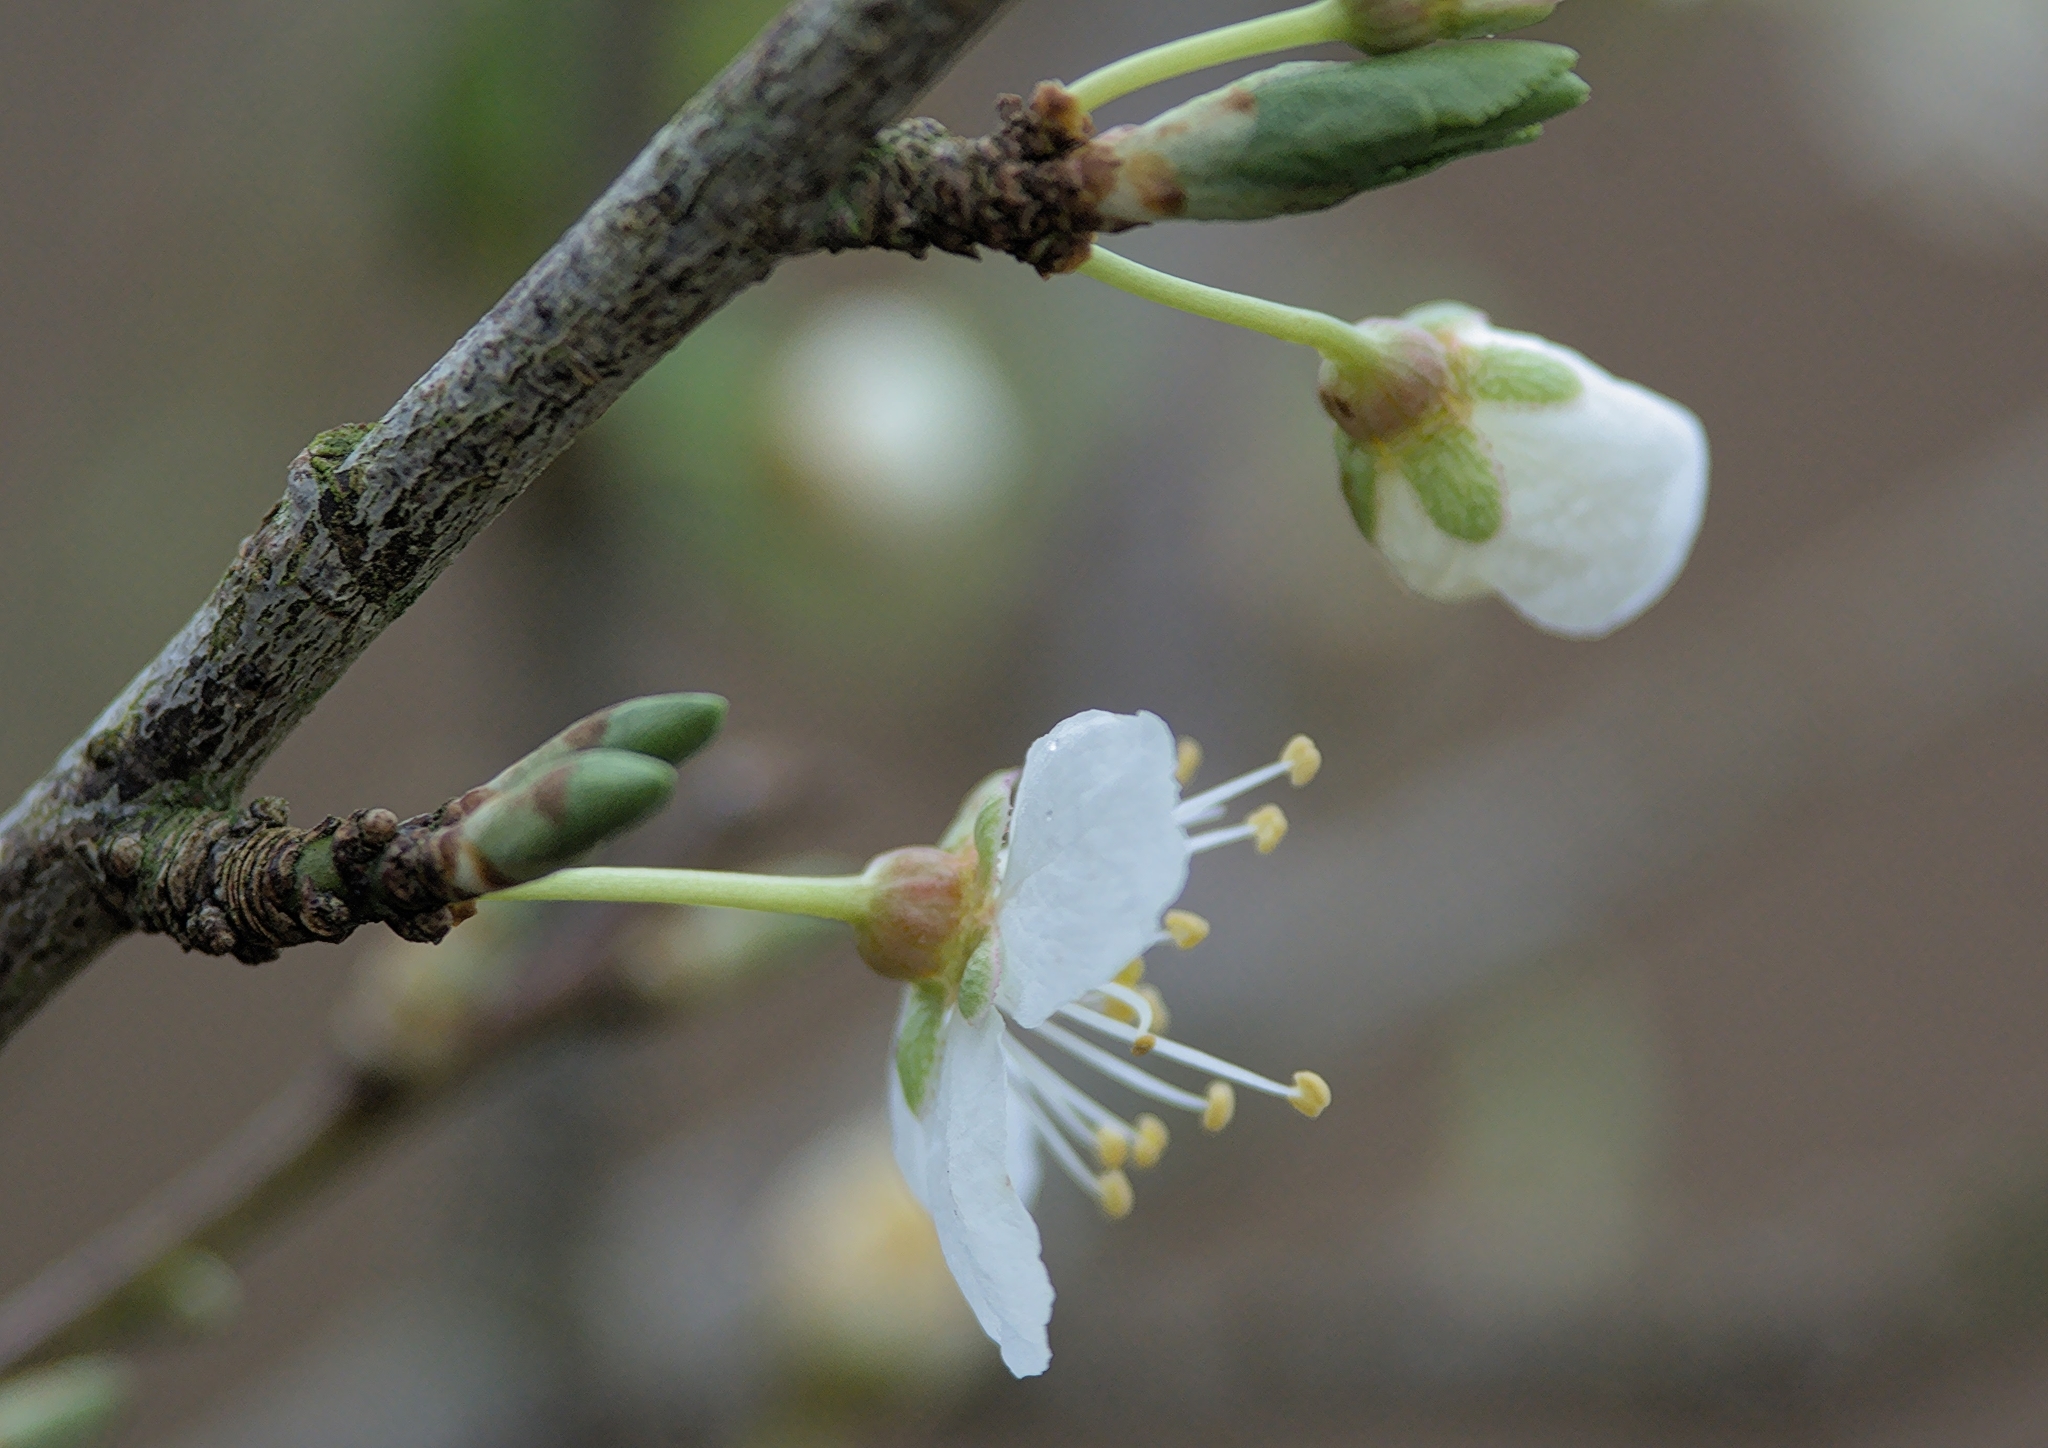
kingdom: Plantae
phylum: Tracheophyta
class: Magnoliopsida
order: Rosales
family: Rosaceae
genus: Prunus
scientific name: Prunus cerasifera
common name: Cherry plum
